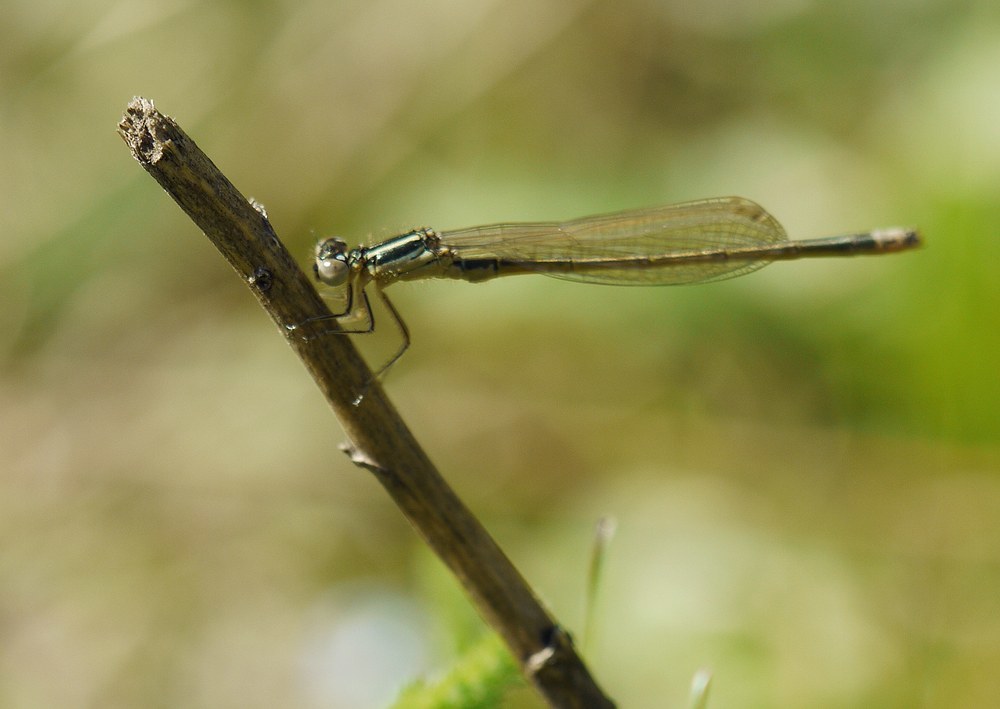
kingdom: Animalia
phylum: Arthropoda
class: Insecta
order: Odonata
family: Coenagrionidae
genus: Ischnura
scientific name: Ischnura pumilio
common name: Scarce blue-tailed damselfly
